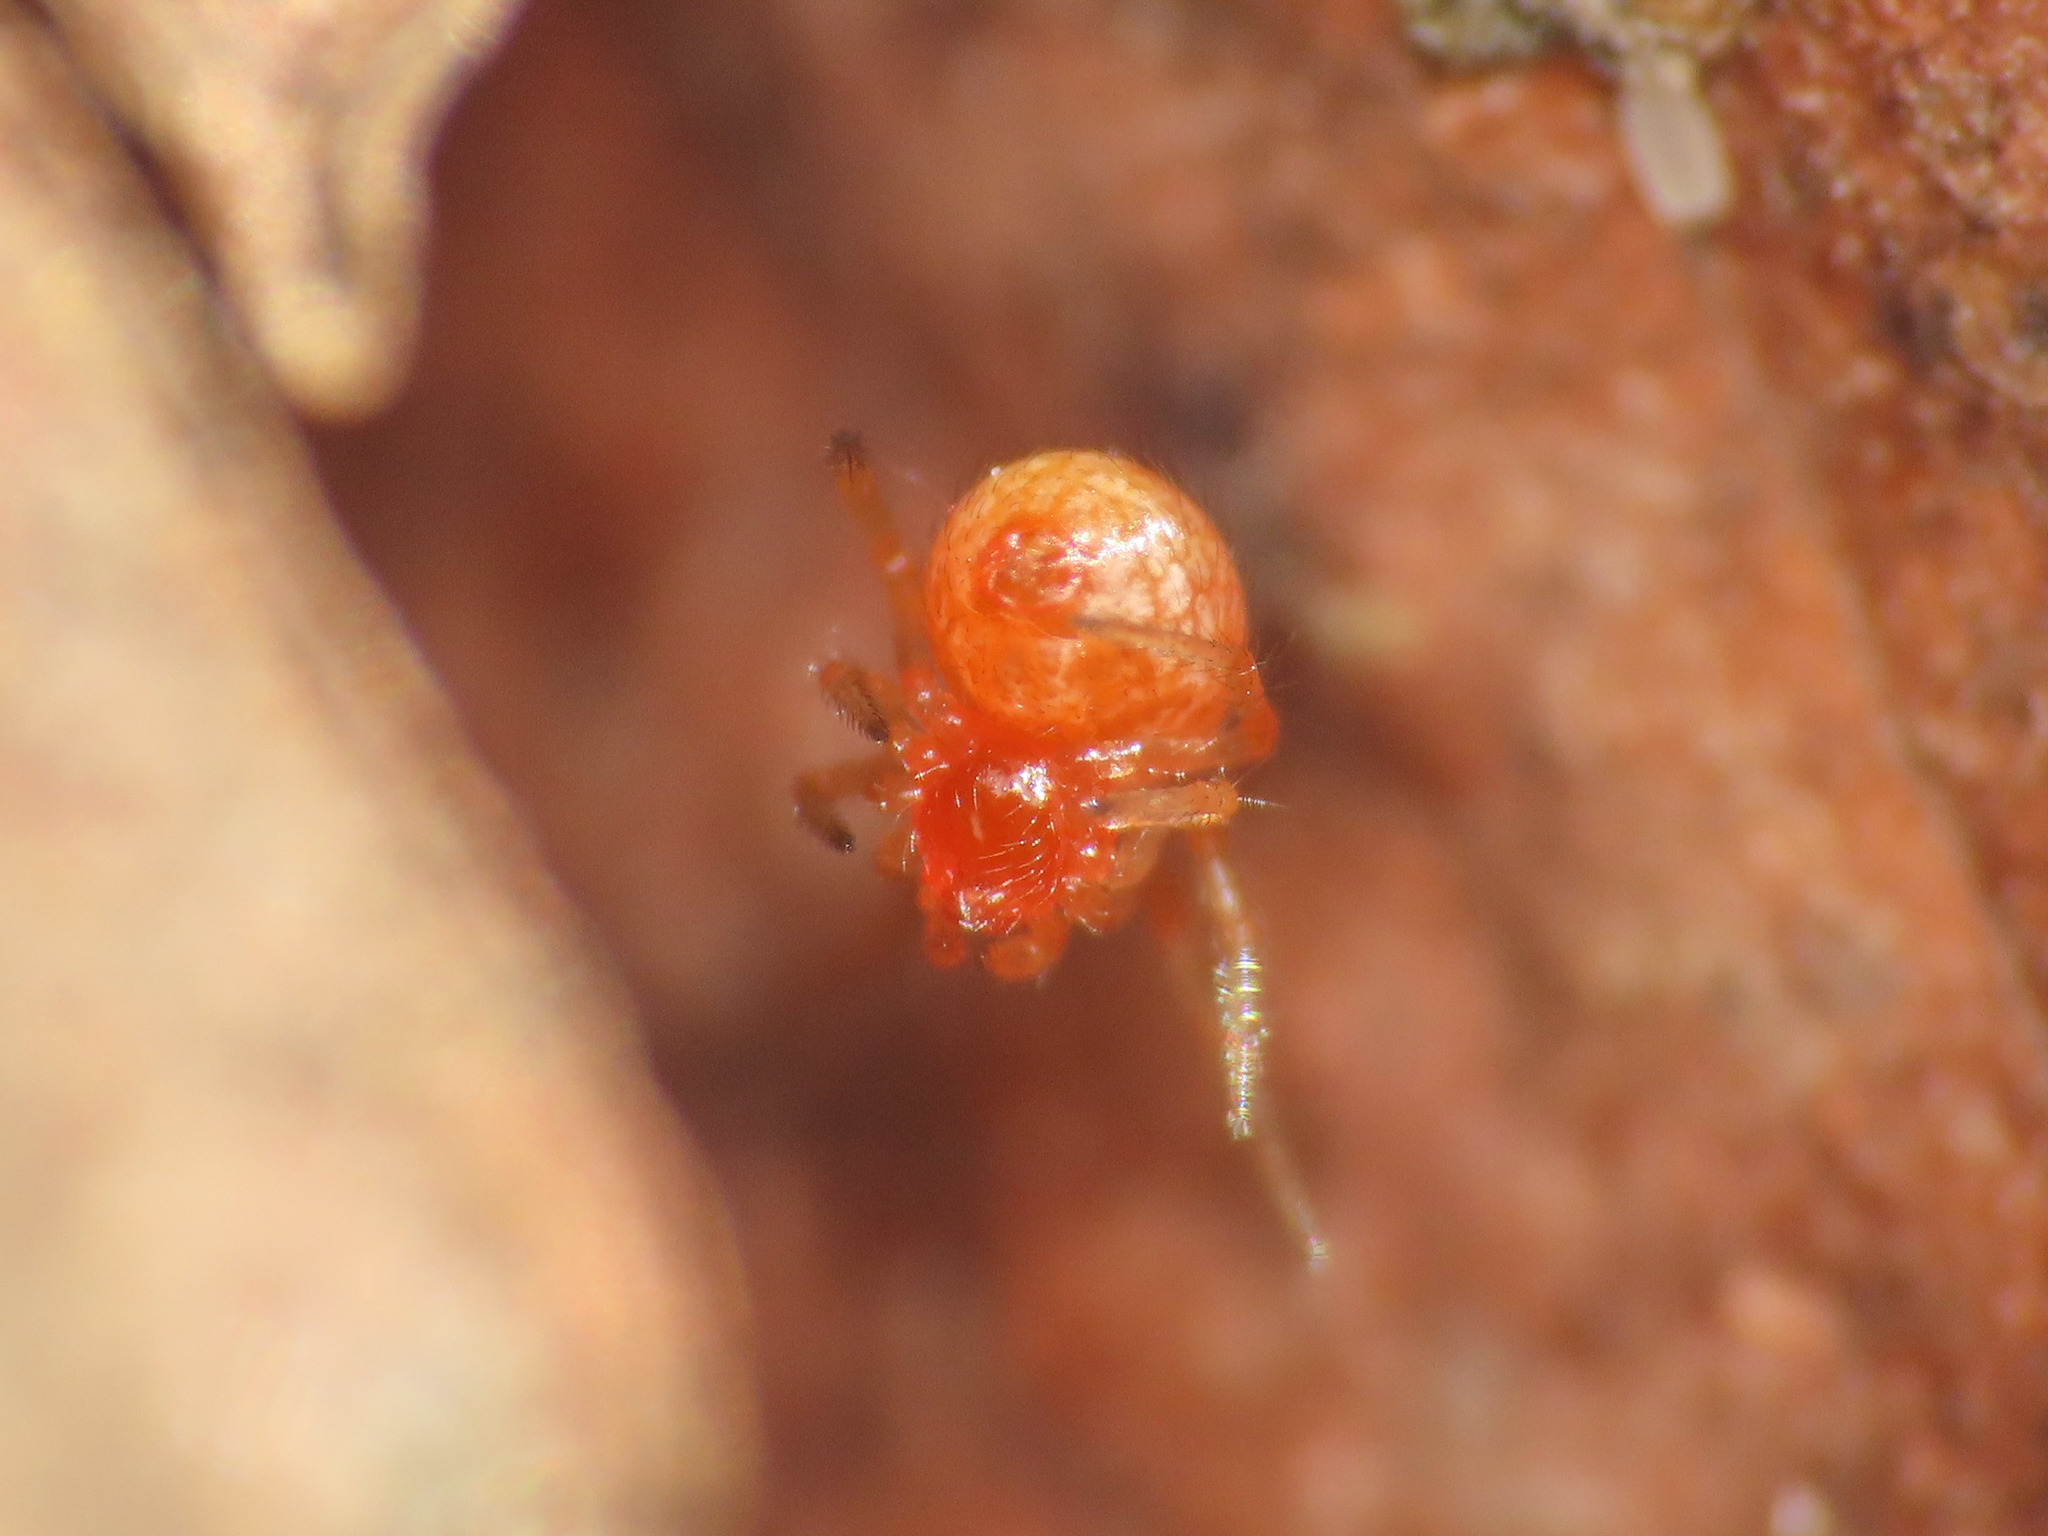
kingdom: Animalia
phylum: Arthropoda
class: Arachnida
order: Araneae
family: Theridiidae
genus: Ruborridion
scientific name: Ruborridion musivum
